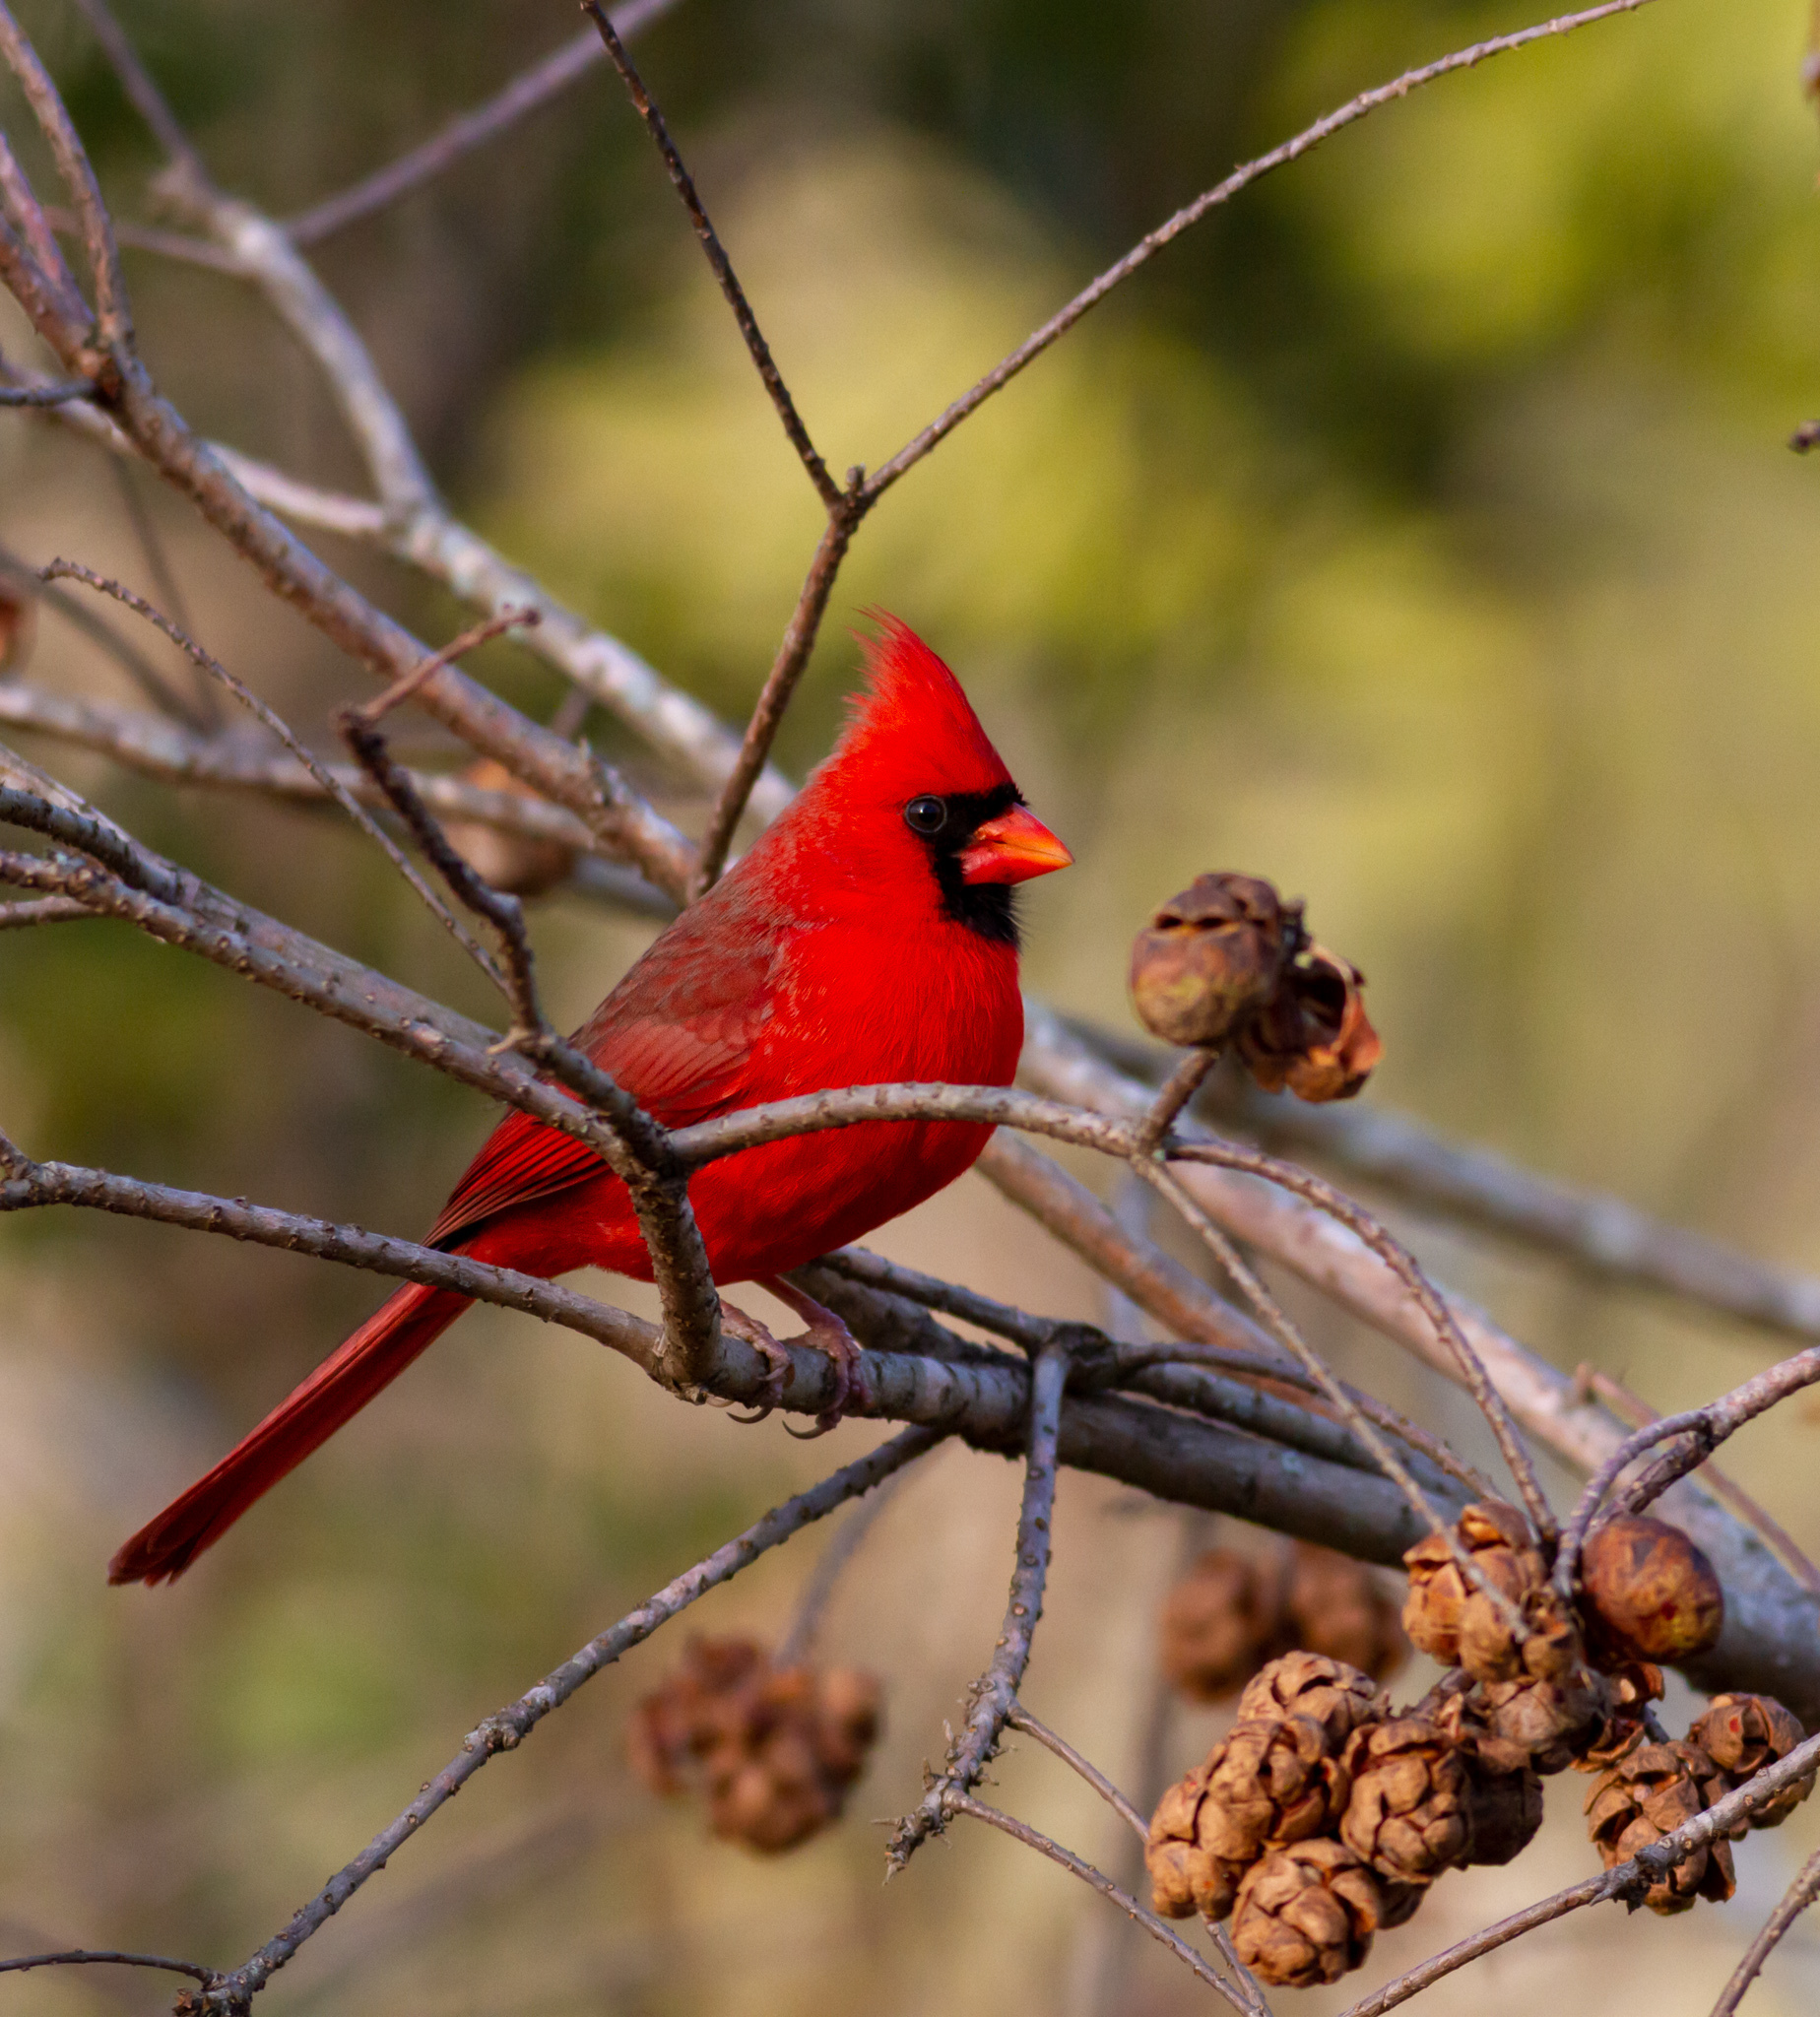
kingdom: Animalia
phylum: Chordata
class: Aves
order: Passeriformes
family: Cardinalidae
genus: Cardinalis
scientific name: Cardinalis cardinalis
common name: Northern cardinal
